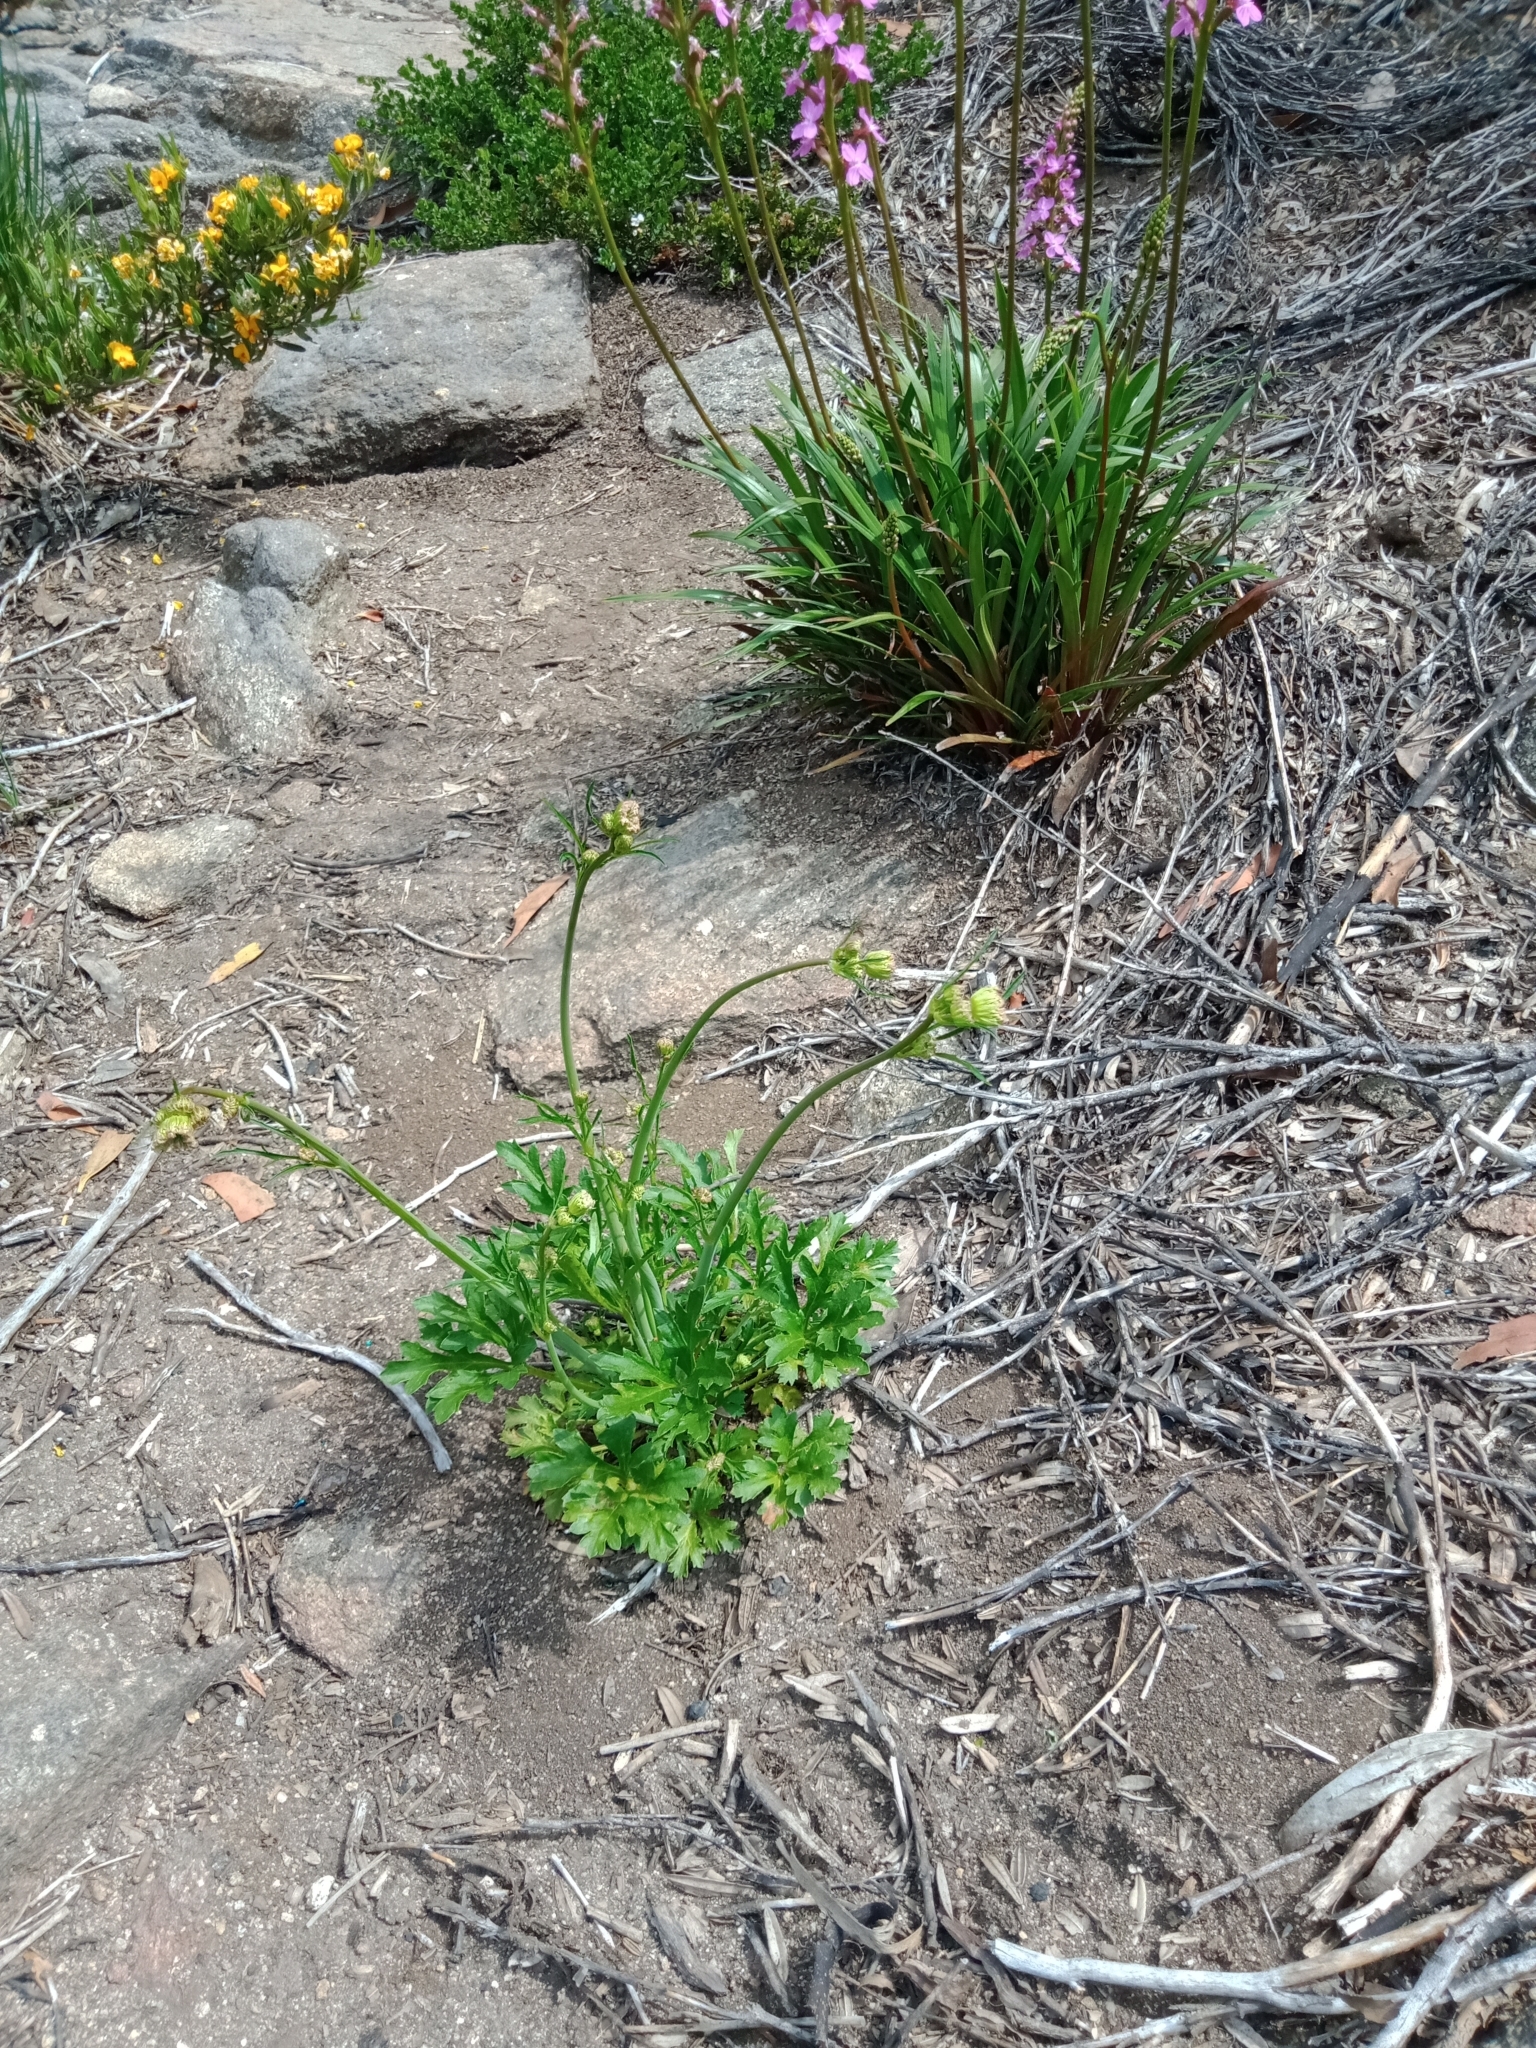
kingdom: Plantae
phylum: Tracheophyta
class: Magnoliopsida
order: Apiales
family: Araliaceae
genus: Trachymene
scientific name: Trachymene composita
